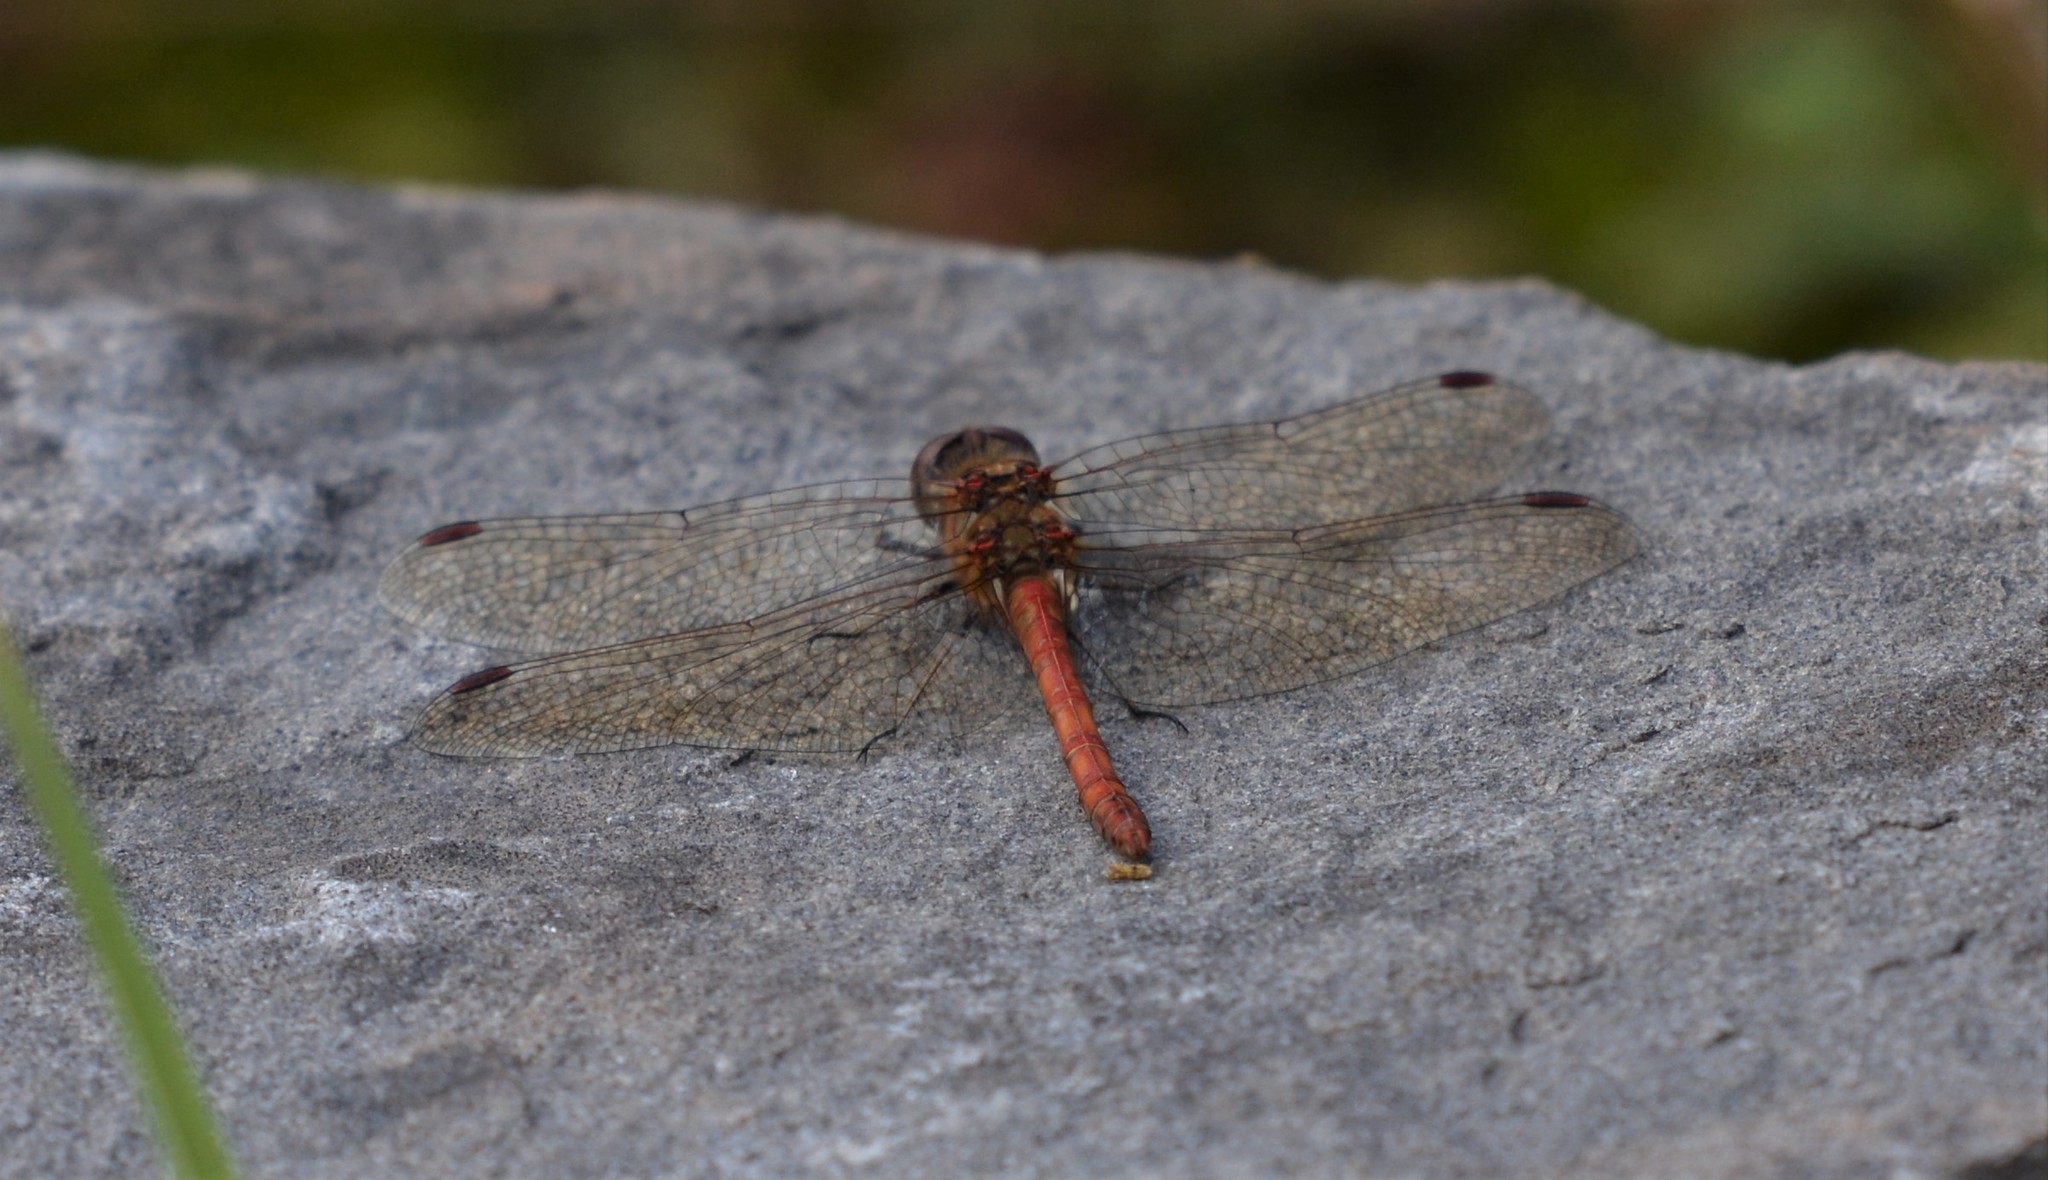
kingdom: Animalia
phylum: Arthropoda
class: Insecta
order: Odonata
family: Libellulidae
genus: Sympetrum
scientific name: Sympetrum striolatum
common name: Common darter
